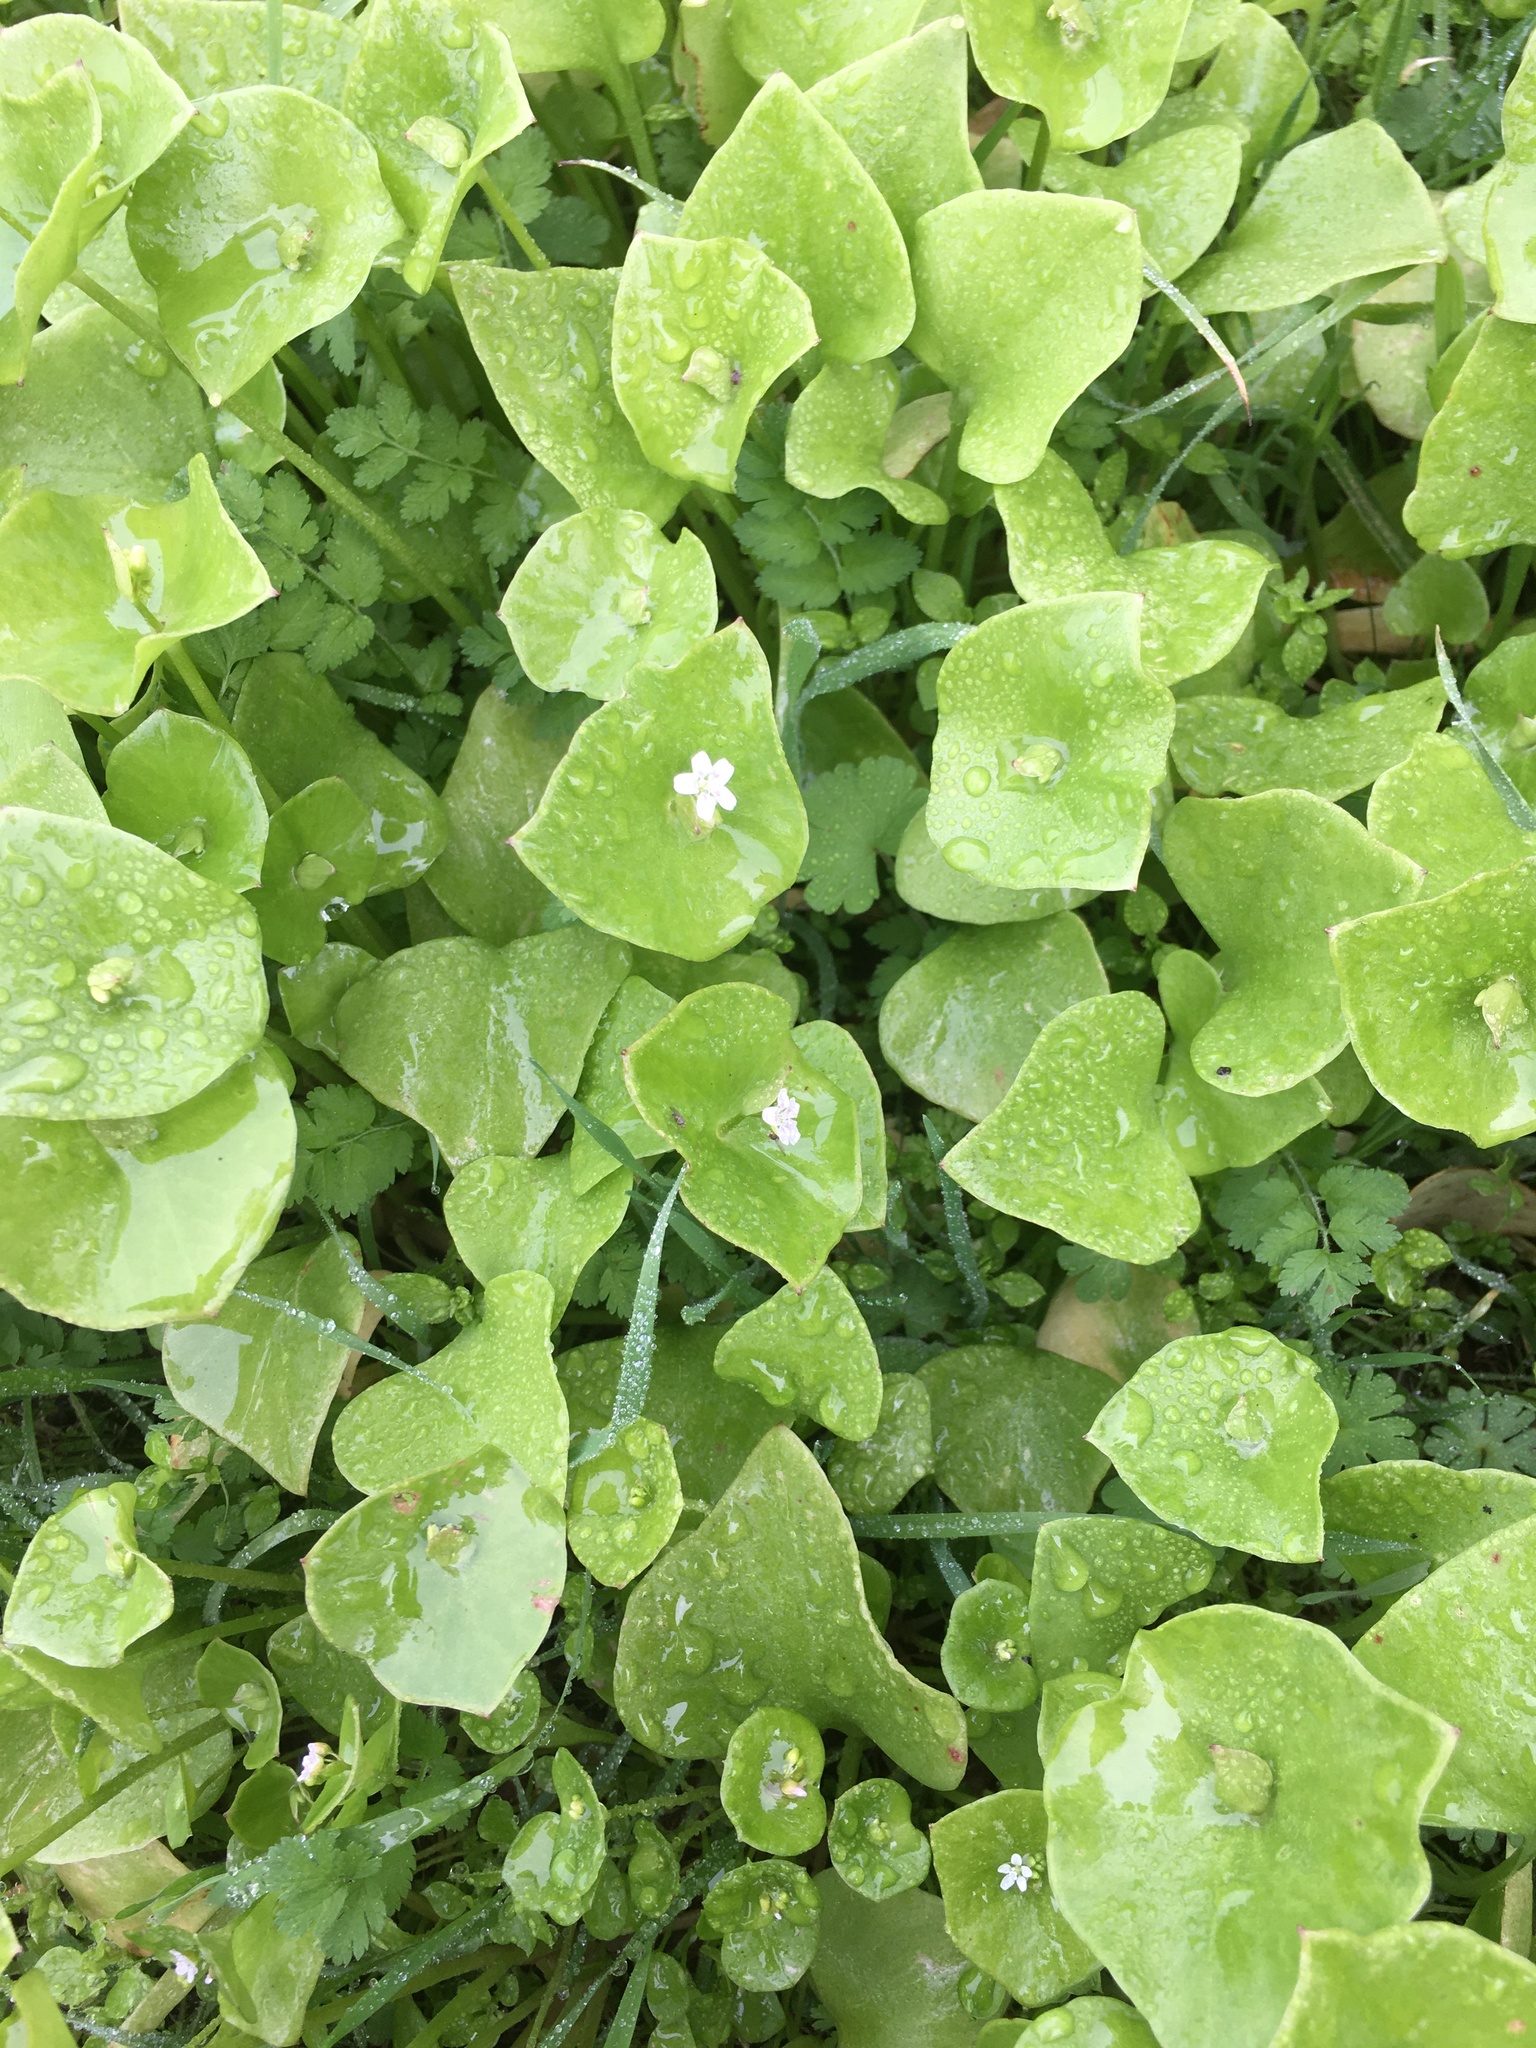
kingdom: Plantae
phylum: Tracheophyta
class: Magnoliopsida
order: Caryophyllales
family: Montiaceae
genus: Claytonia
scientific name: Claytonia perfoliata
